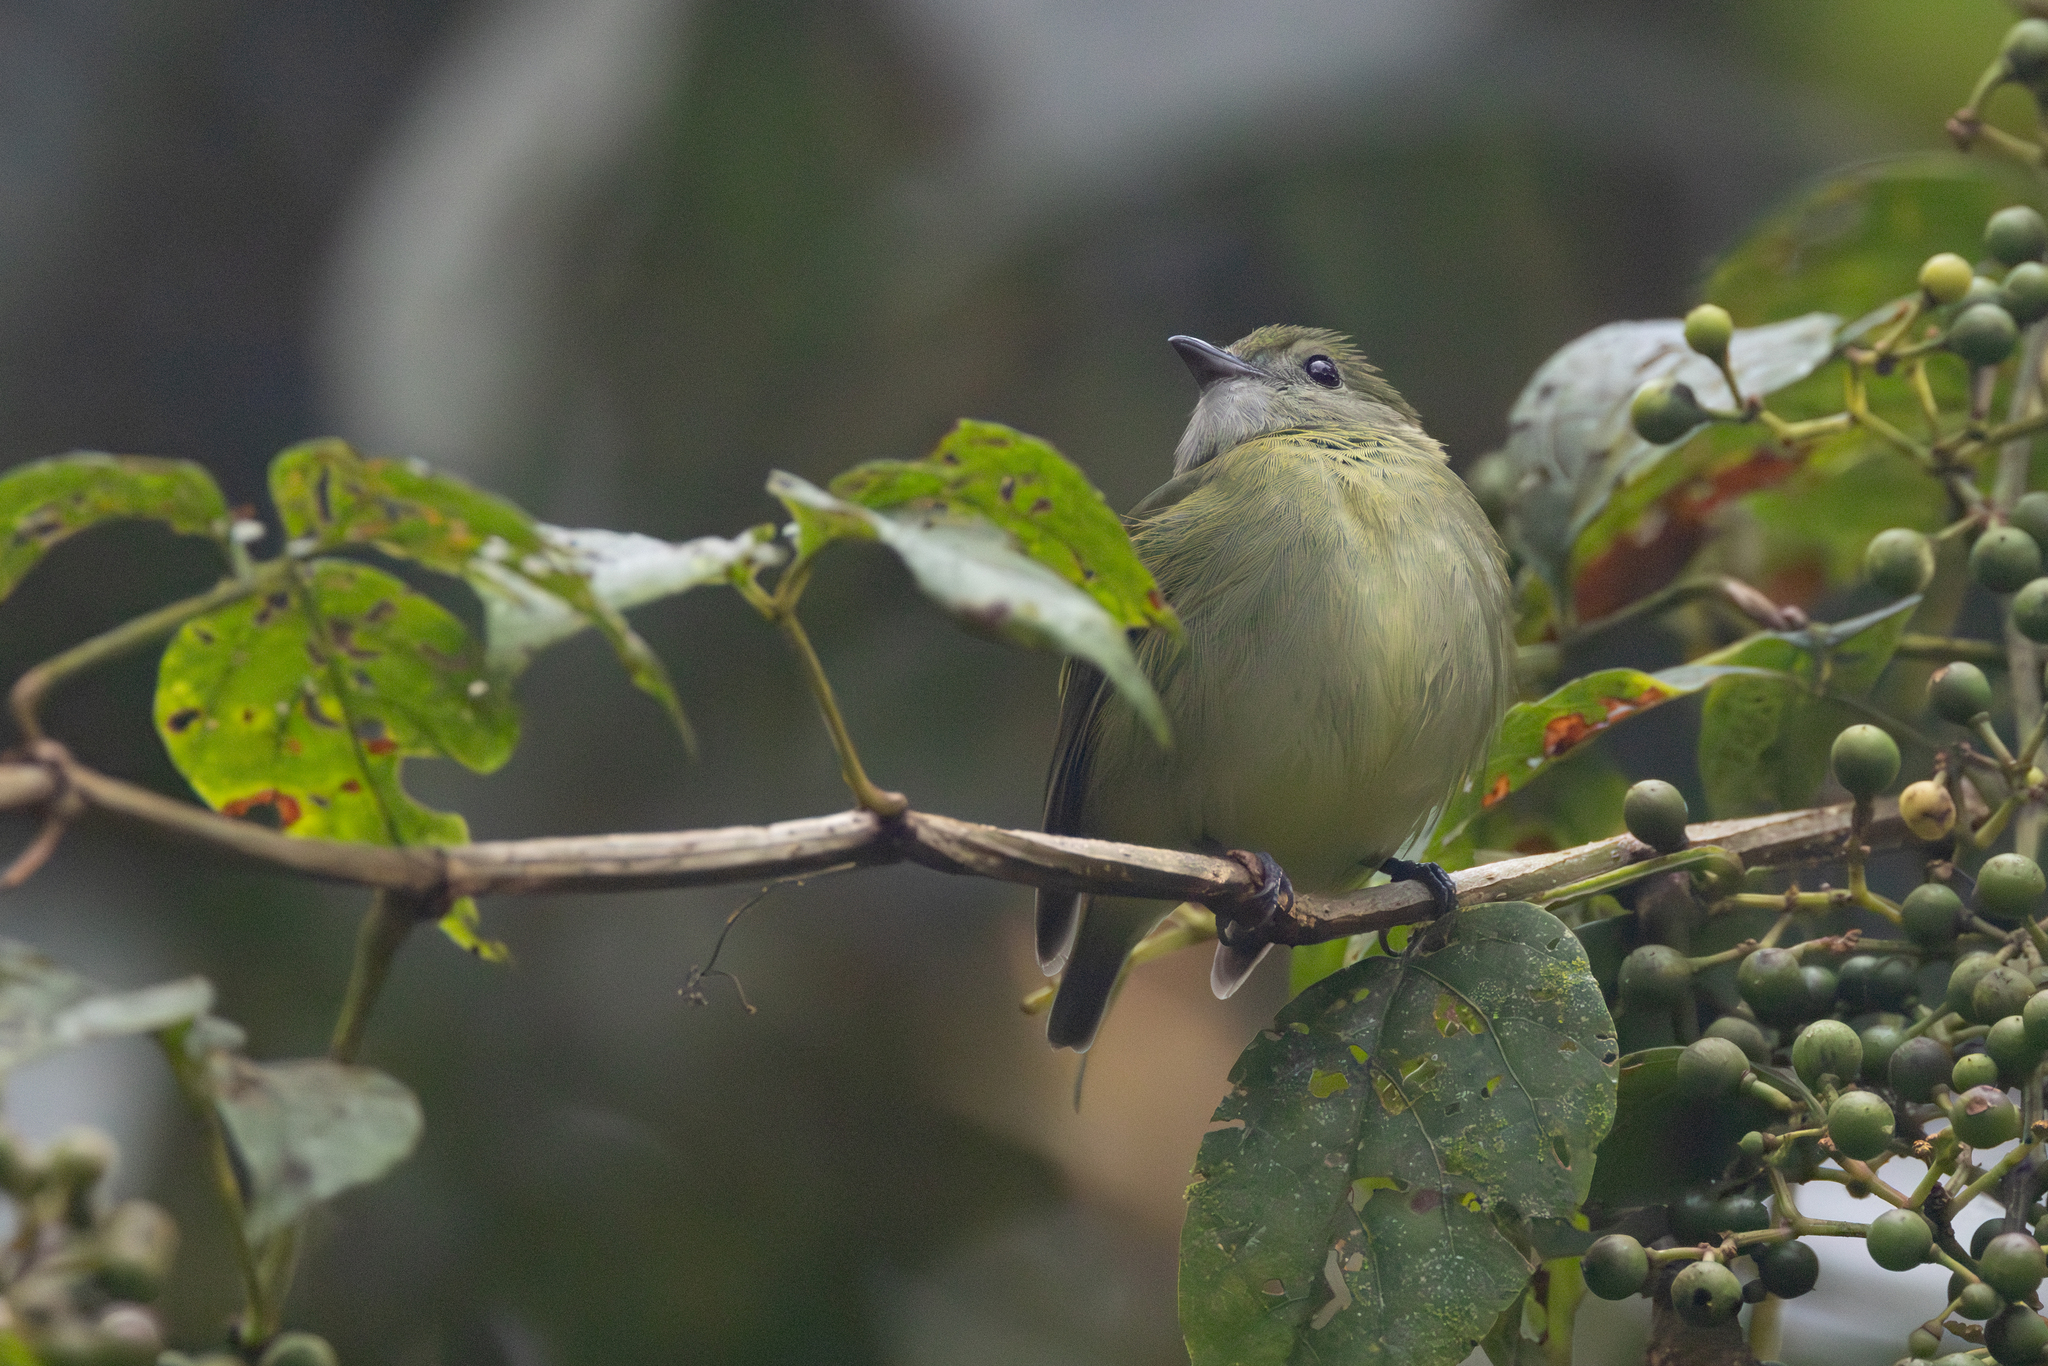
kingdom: Animalia
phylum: Chordata
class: Aves
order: Passeriformes
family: Pipridae
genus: Corapipo
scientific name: Corapipo altera
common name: White-ruffed manakin
